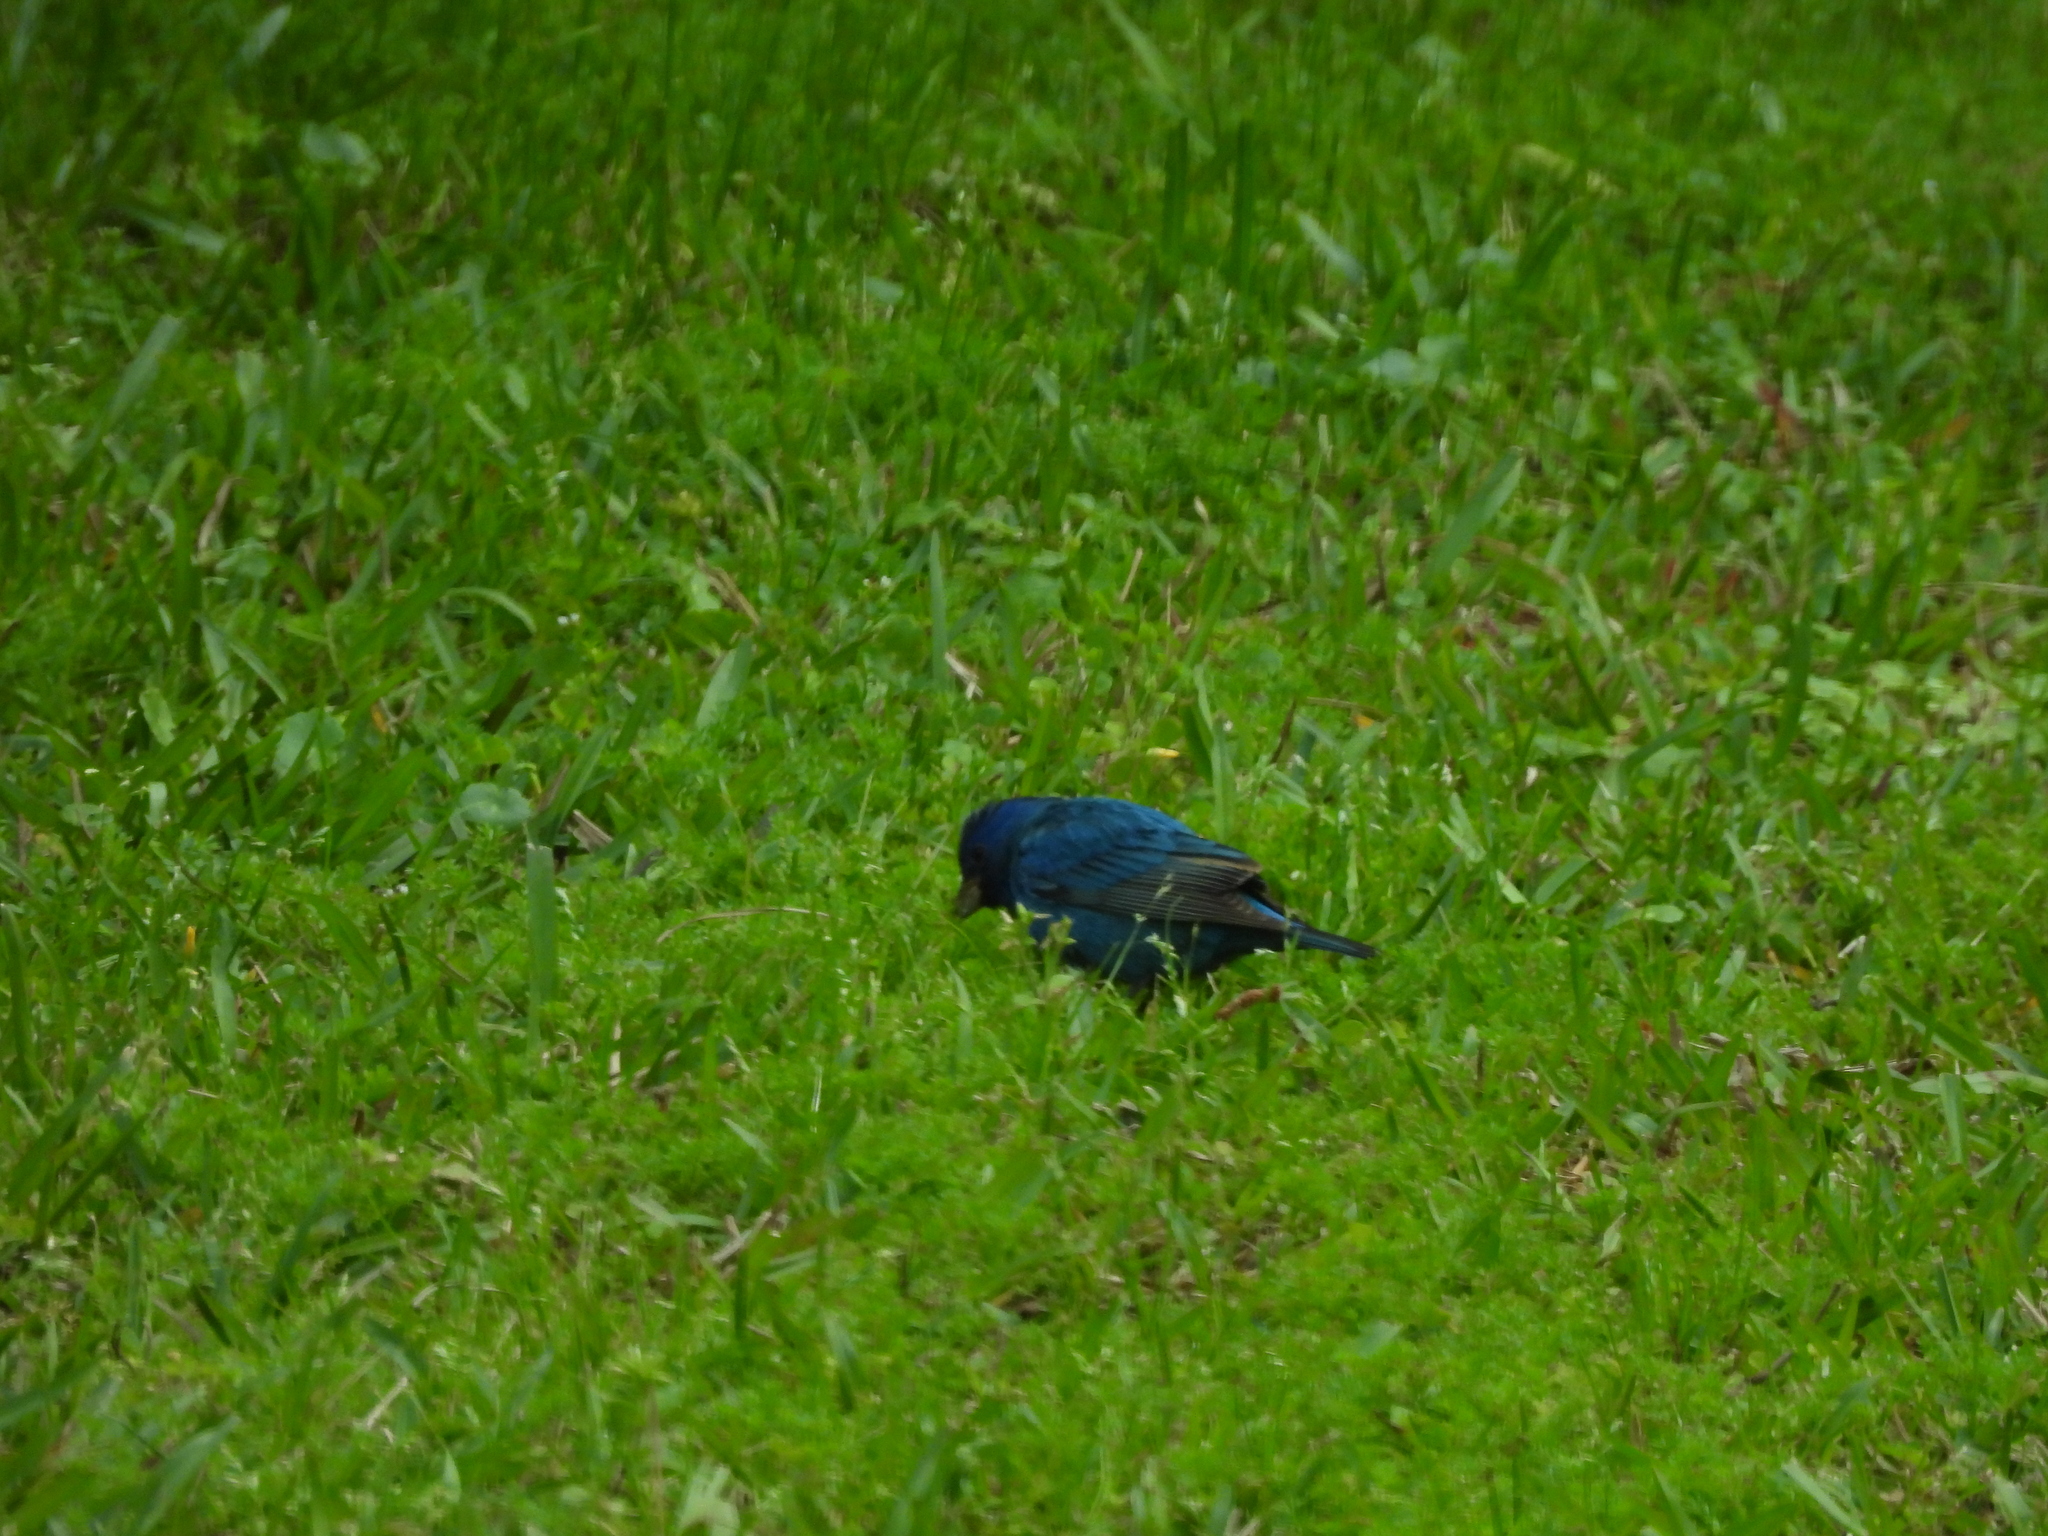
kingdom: Animalia
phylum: Chordata
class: Aves
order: Passeriformes
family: Cardinalidae
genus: Passerina
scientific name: Passerina cyanea
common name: Indigo bunting
